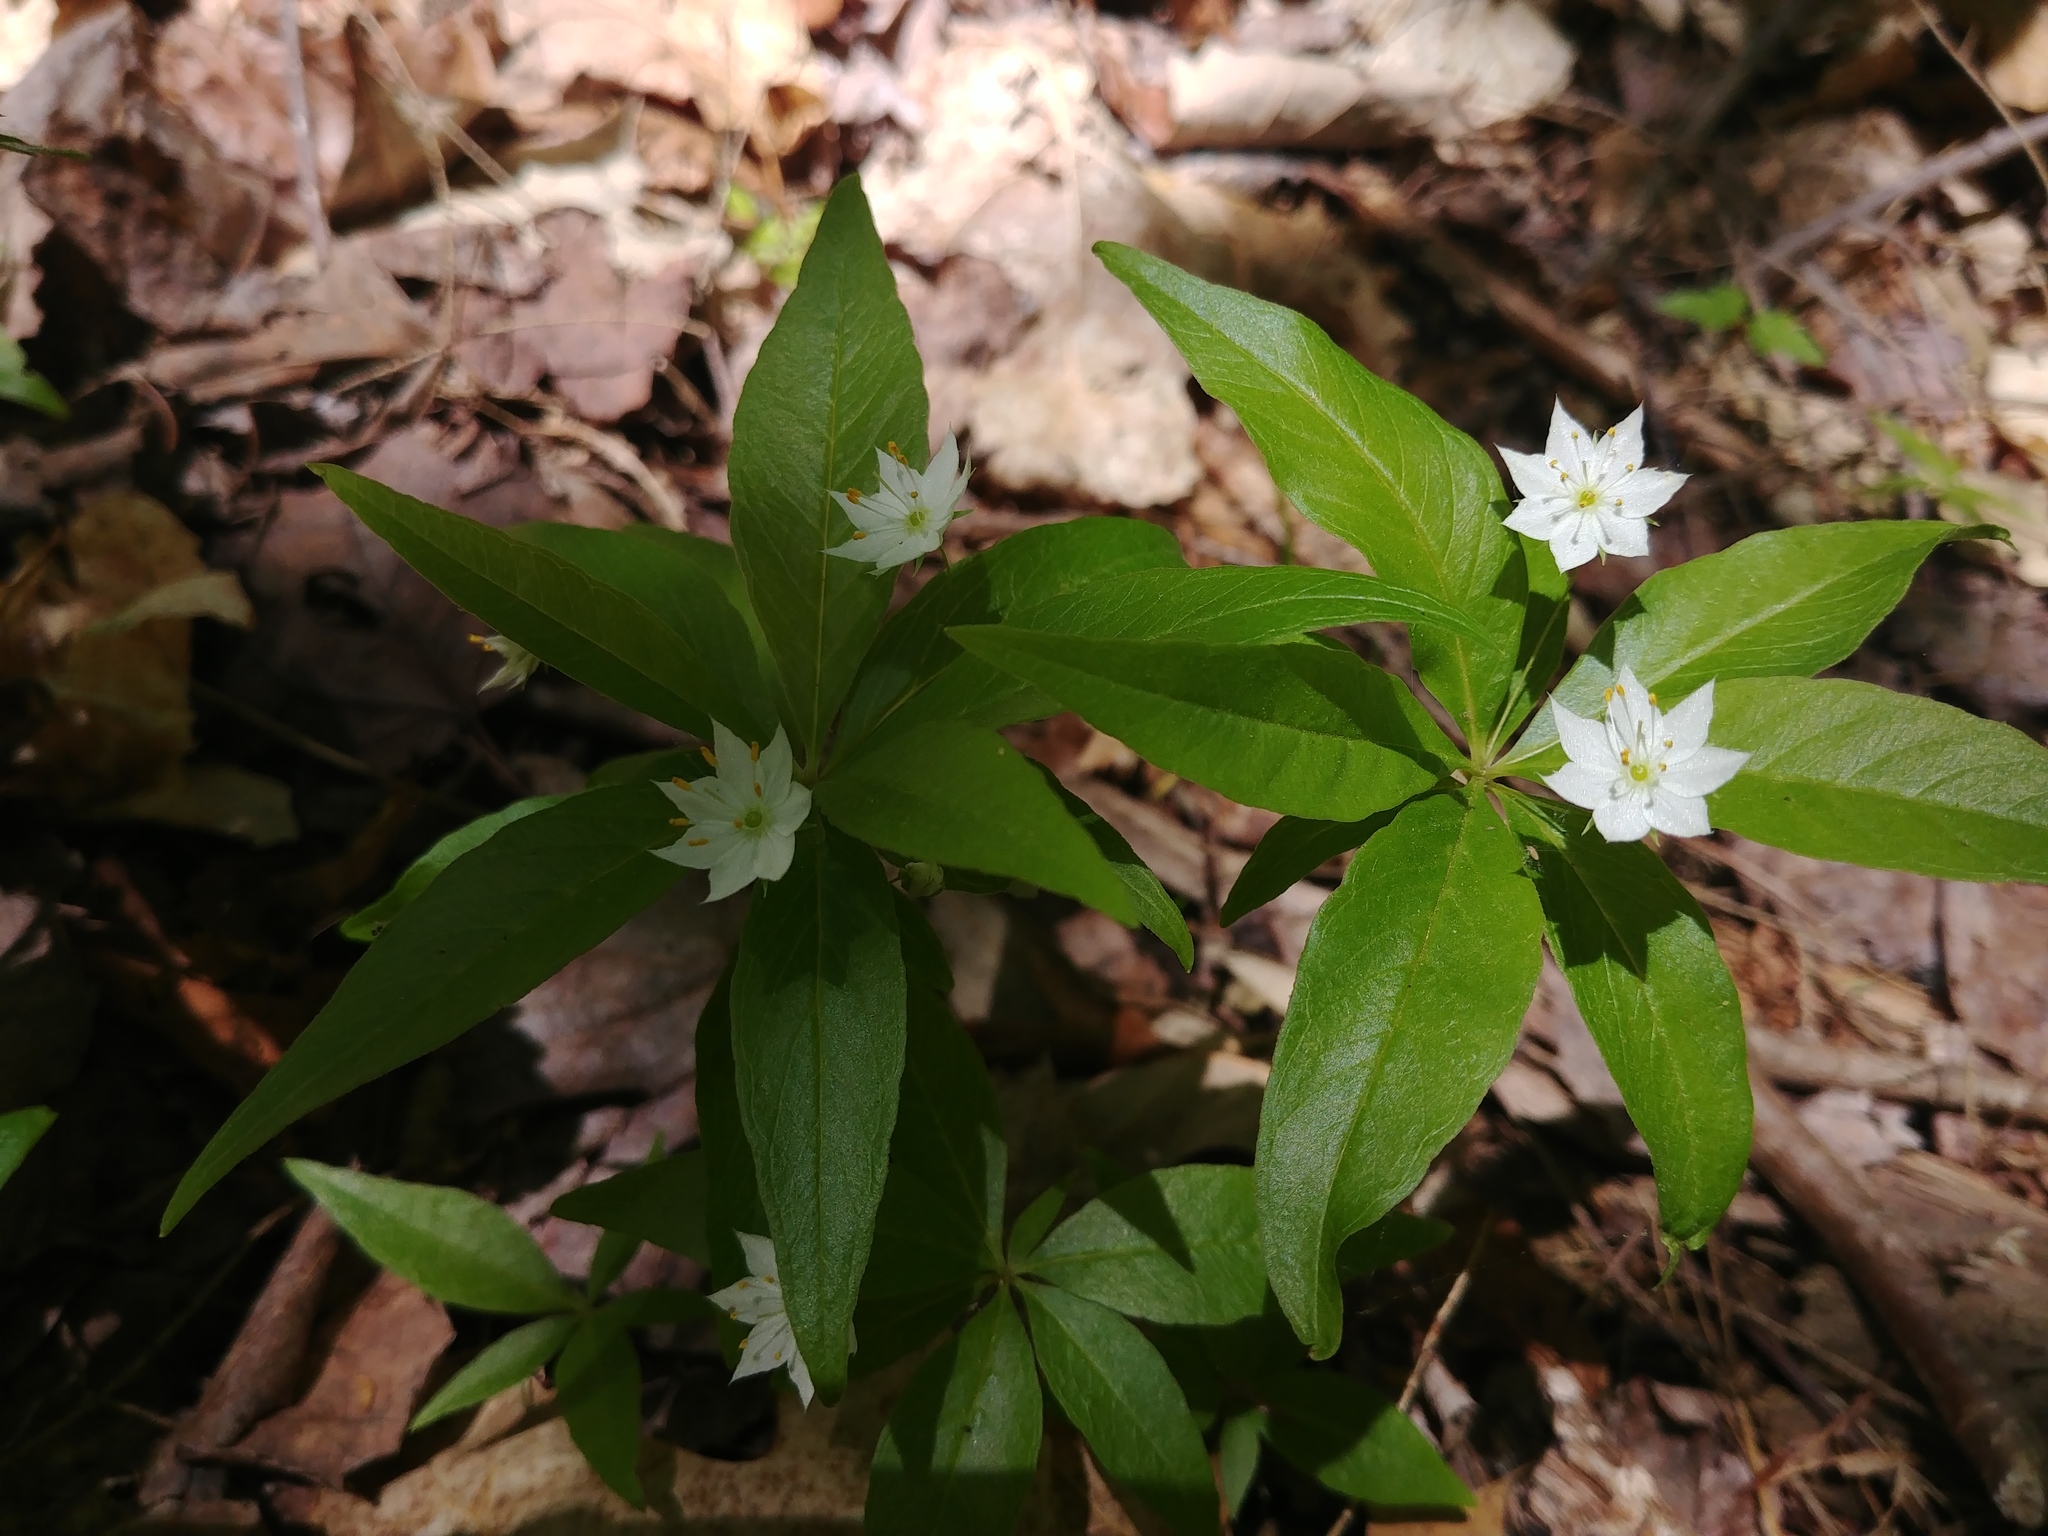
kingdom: Plantae
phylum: Tracheophyta
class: Magnoliopsida
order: Ericales
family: Primulaceae
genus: Lysimachia
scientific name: Lysimachia borealis
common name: American starflower
